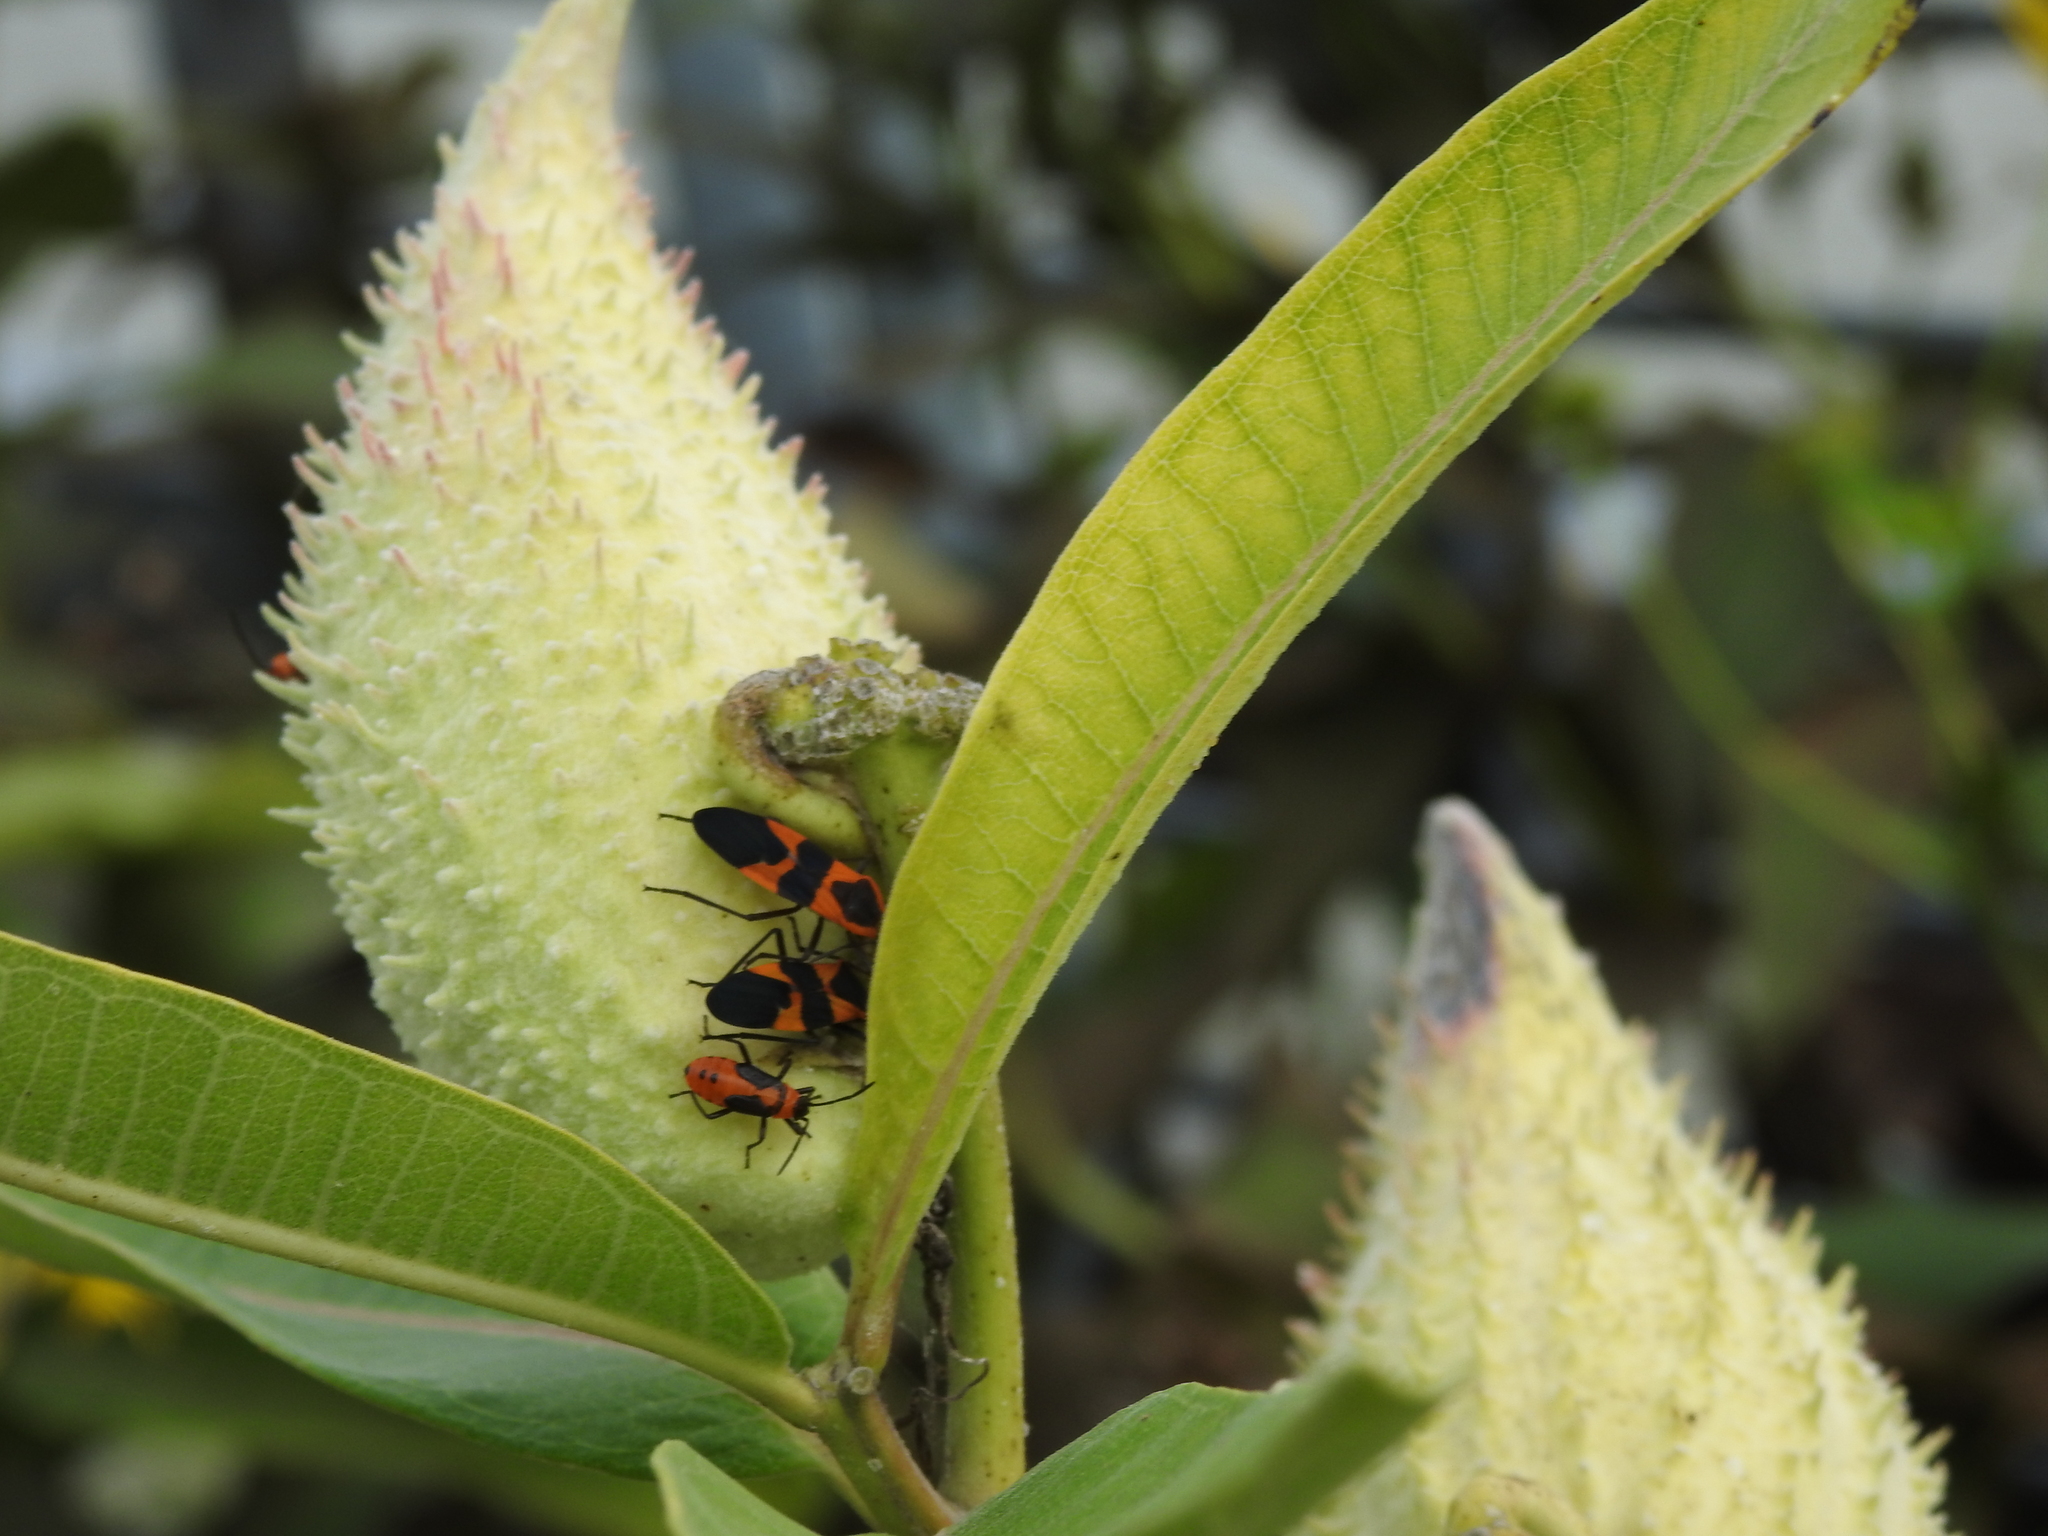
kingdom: Animalia
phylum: Arthropoda
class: Insecta
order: Hemiptera
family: Lygaeidae
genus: Oncopeltus
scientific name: Oncopeltus fasciatus
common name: Large milkweed bug
